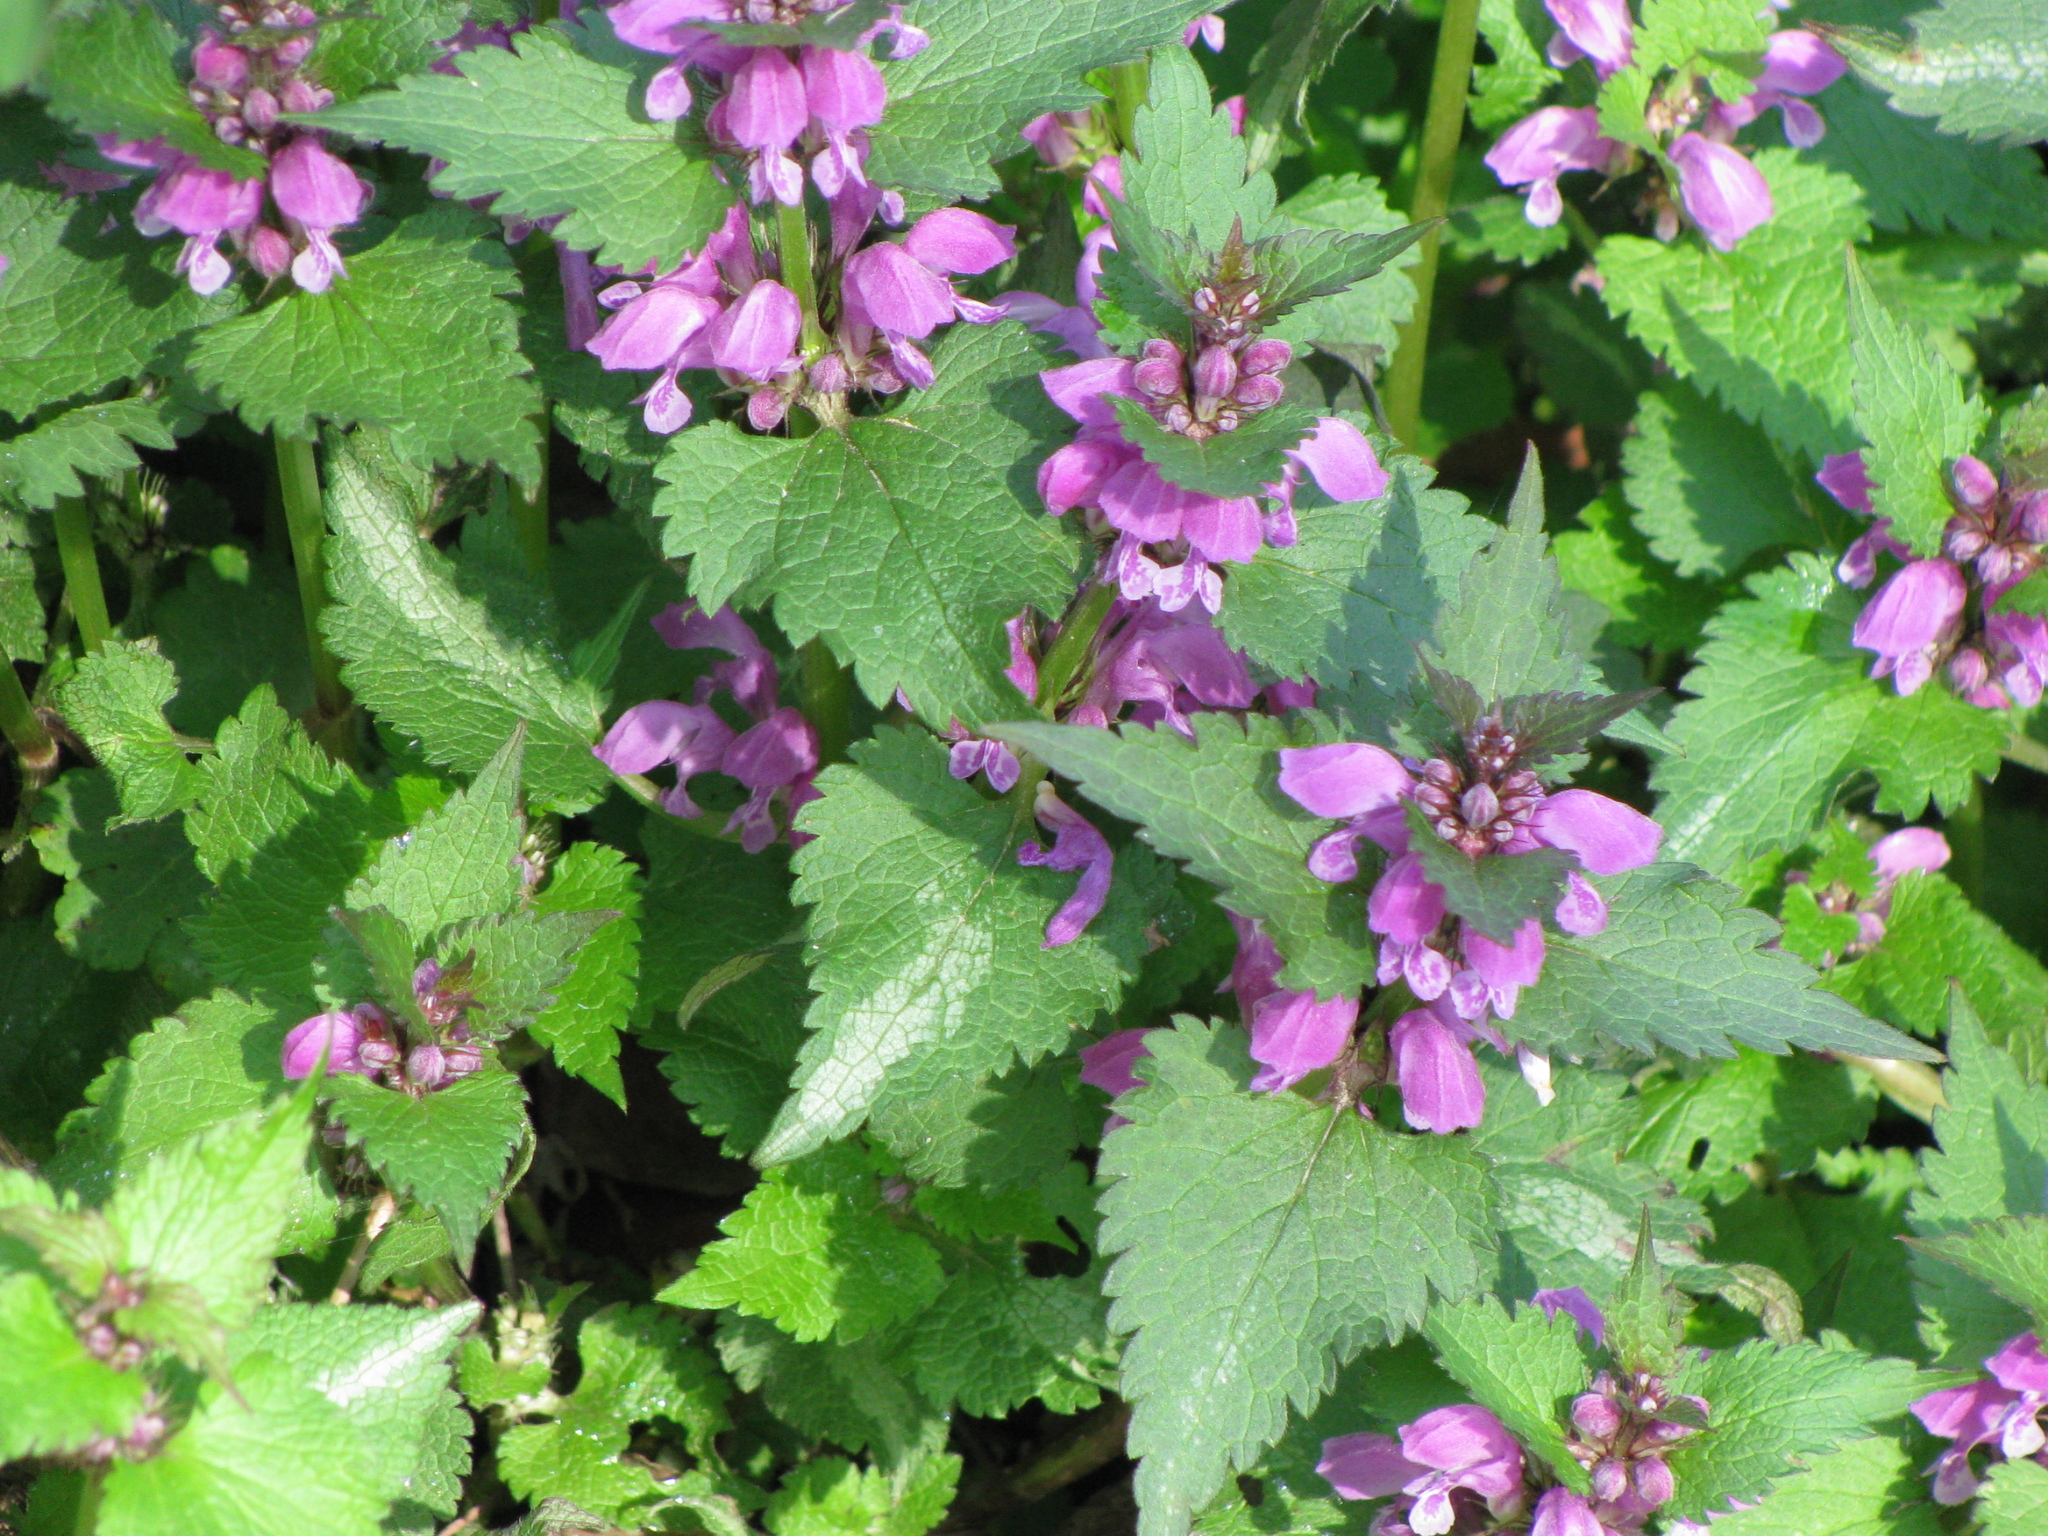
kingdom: Plantae
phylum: Tracheophyta
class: Magnoliopsida
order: Lamiales
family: Lamiaceae
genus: Lamium
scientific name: Lamium maculatum
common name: Spotted dead-nettle
